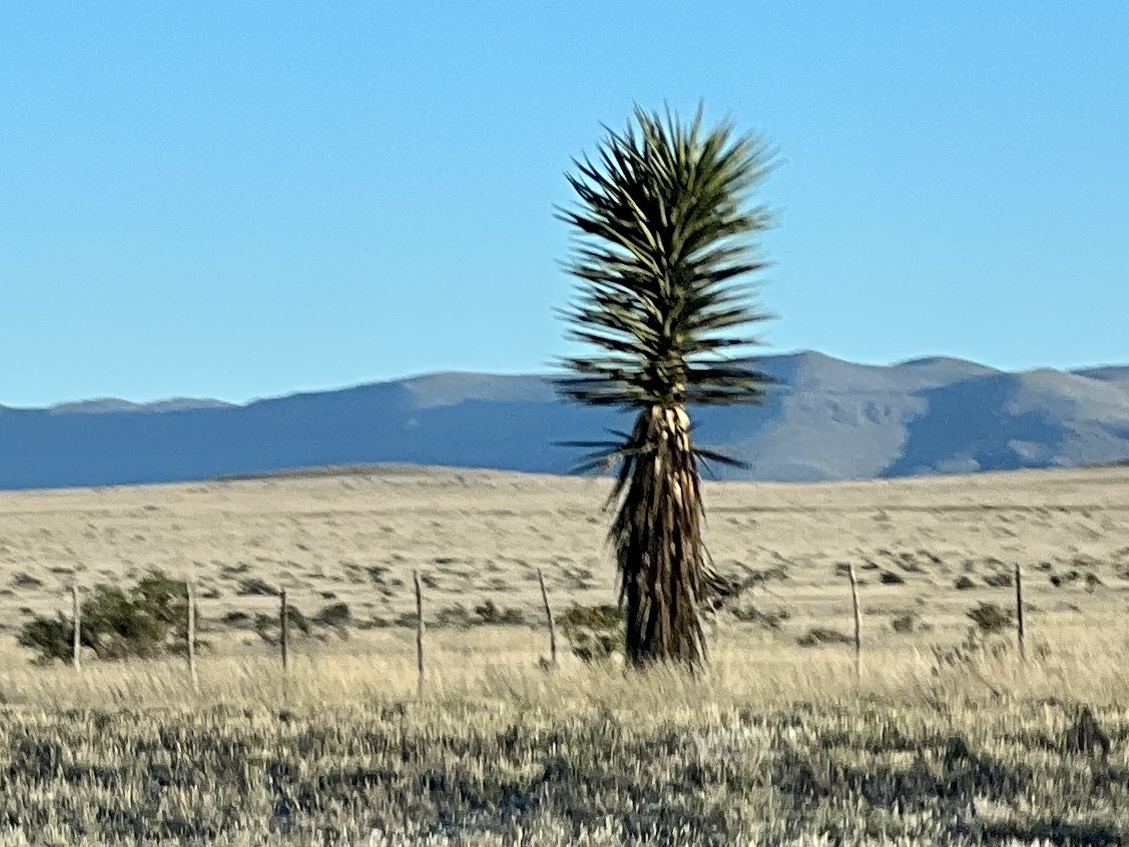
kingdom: Plantae
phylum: Tracheophyta
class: Liliopsida
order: Asparagales
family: Asparagaceae
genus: Yucca
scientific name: Yucca treculiana
